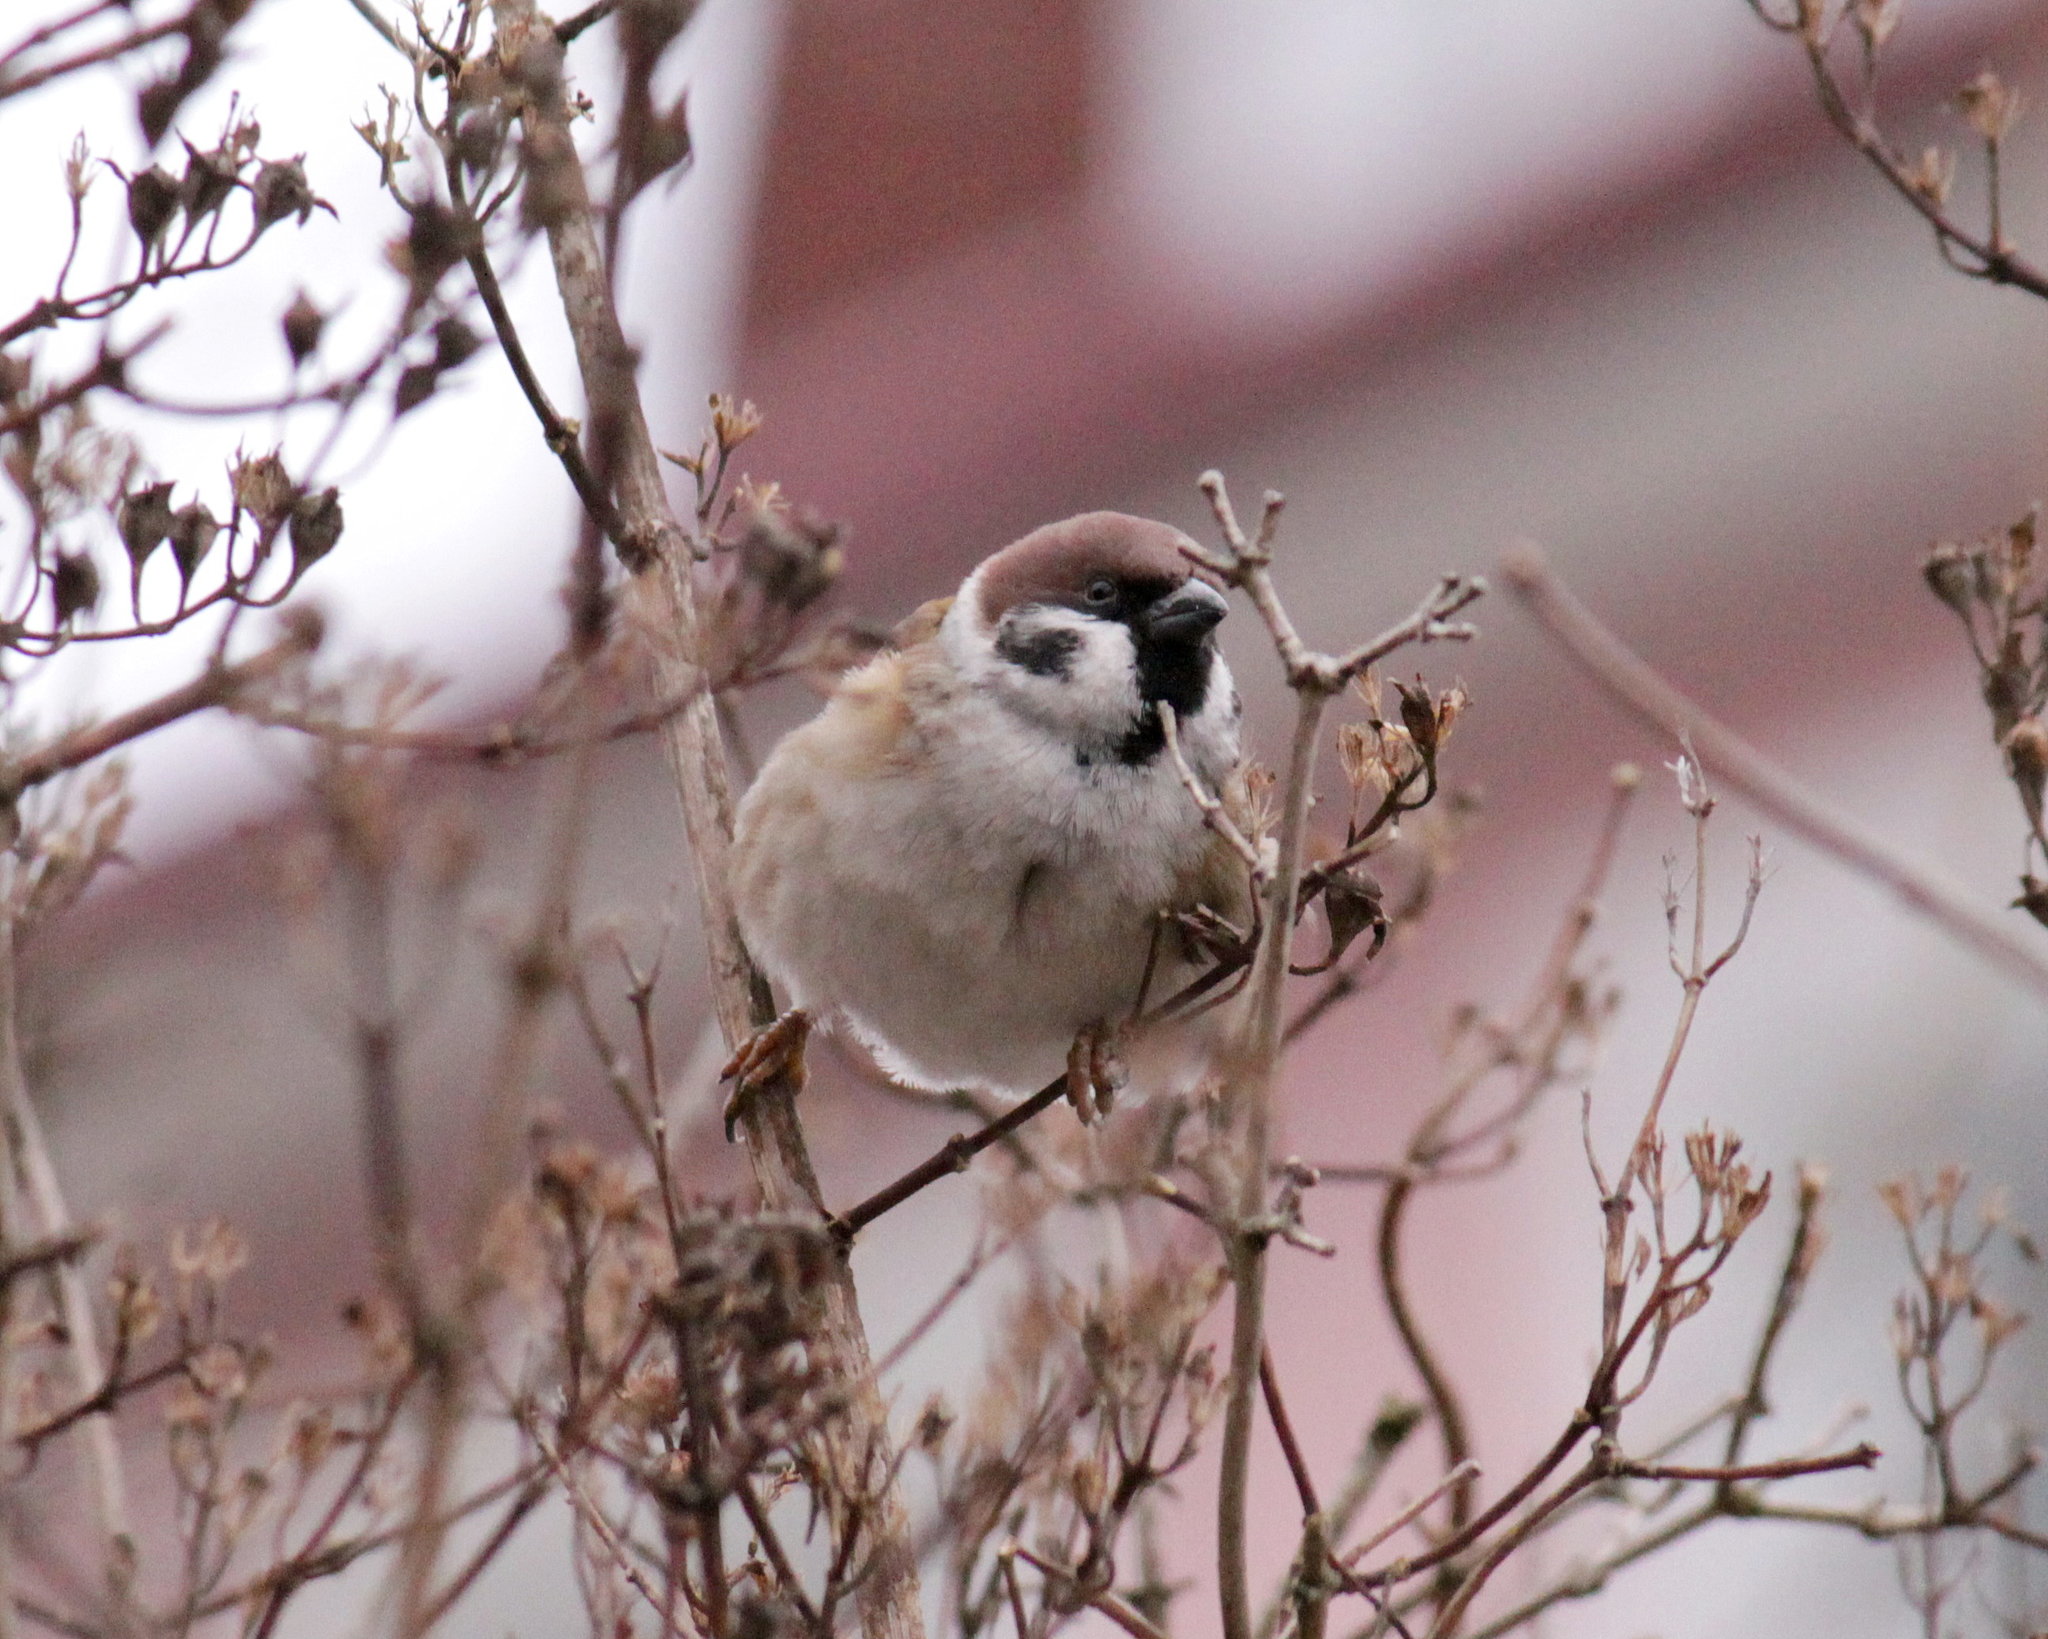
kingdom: Animalia
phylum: Chordata
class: Aves
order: Passeriformes
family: Passeridae
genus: Passer
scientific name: Passer montanus
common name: Eurasian tree sparrow
